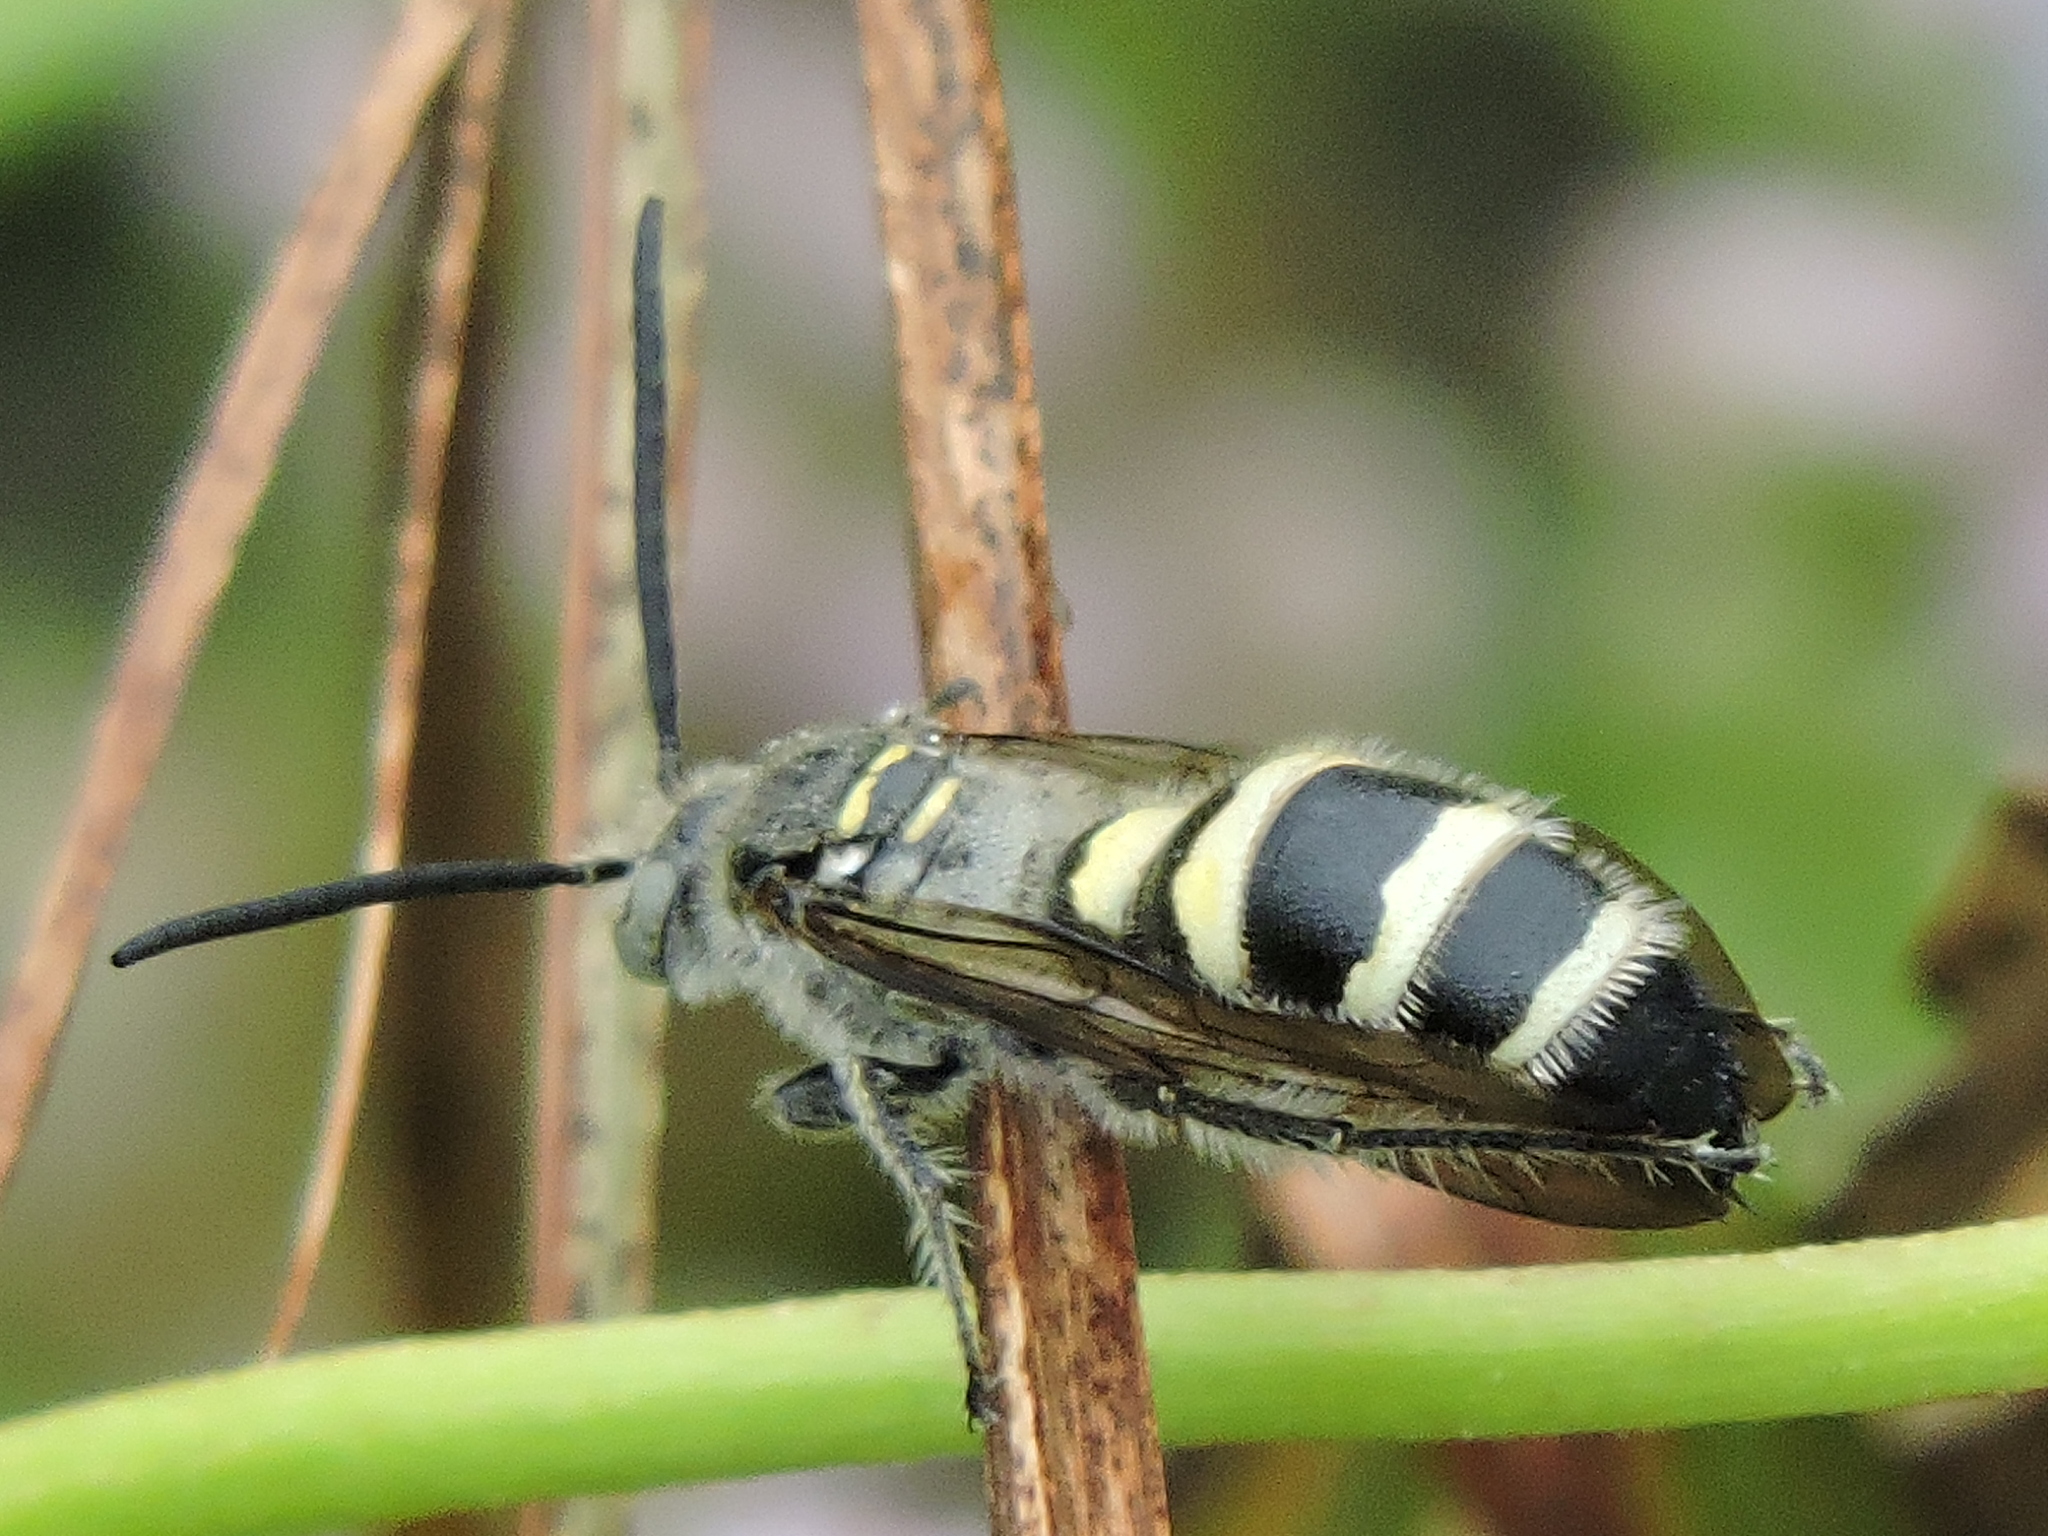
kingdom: Animalia
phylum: Arthropoda
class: Insecta
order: Hymenoptera
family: Scoliidae
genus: Dielis
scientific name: Dielis tolteca
